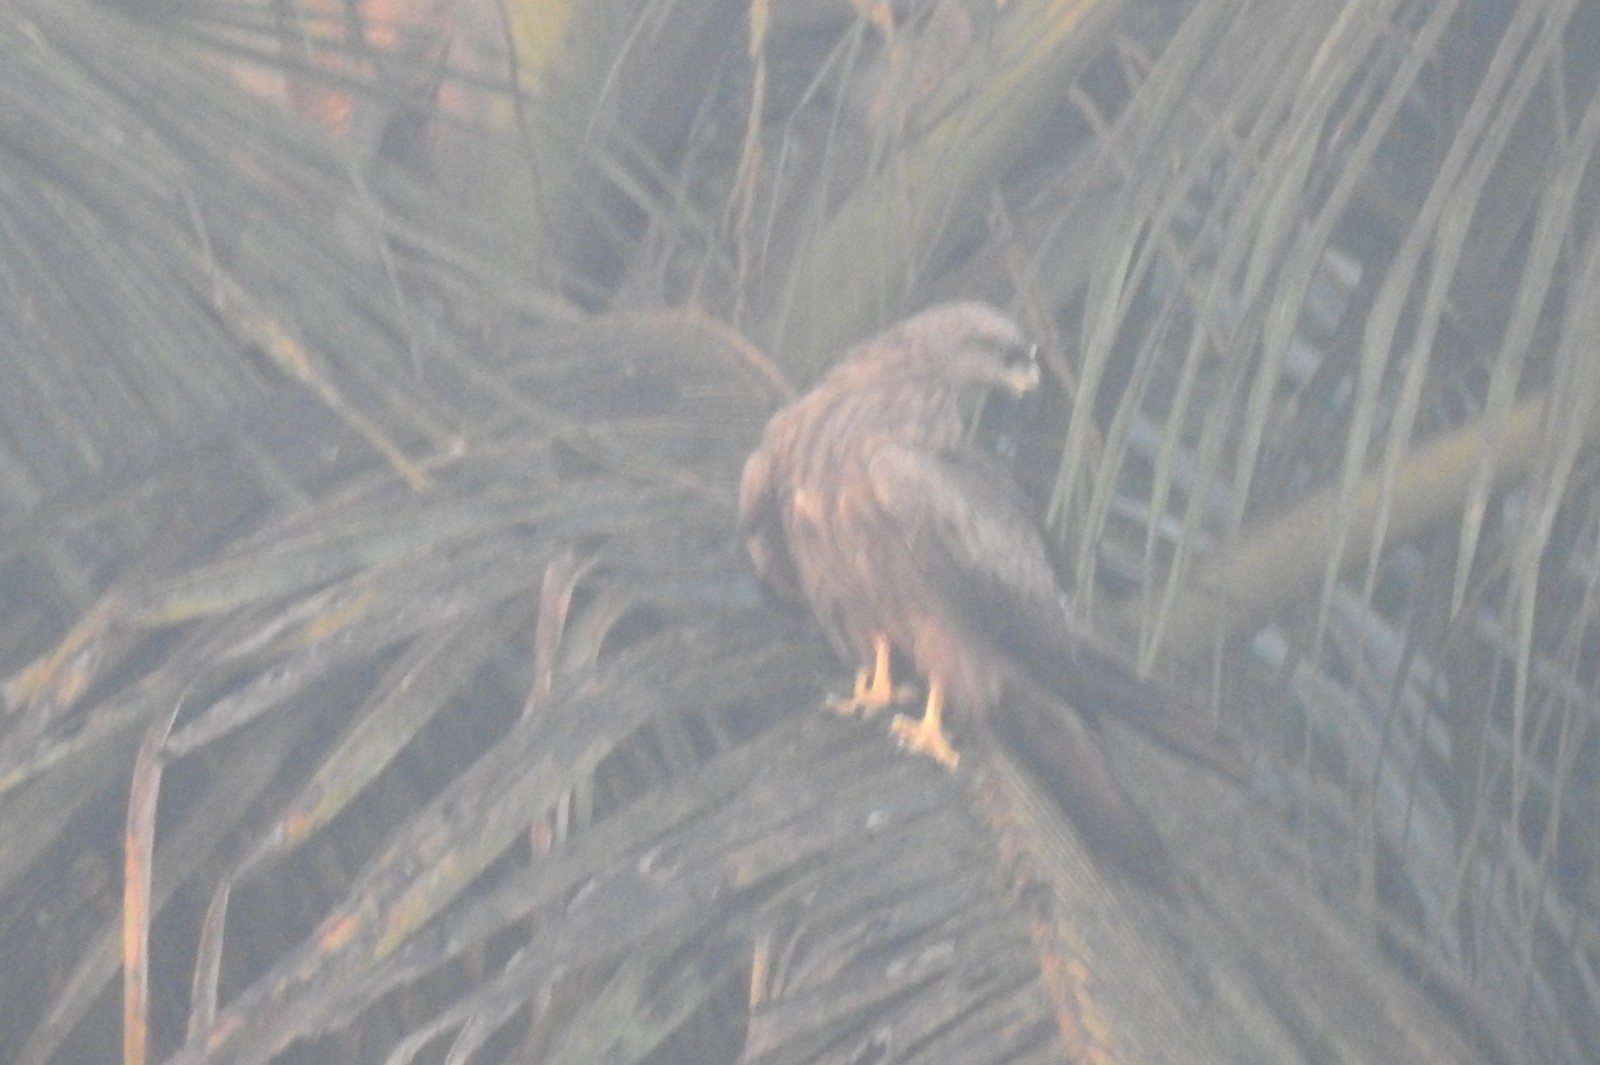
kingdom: Animalia
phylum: Chordata
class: Aves
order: Accipitriformes
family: Accipitridae
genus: Milvus
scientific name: Milvus migrans
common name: Black kite
